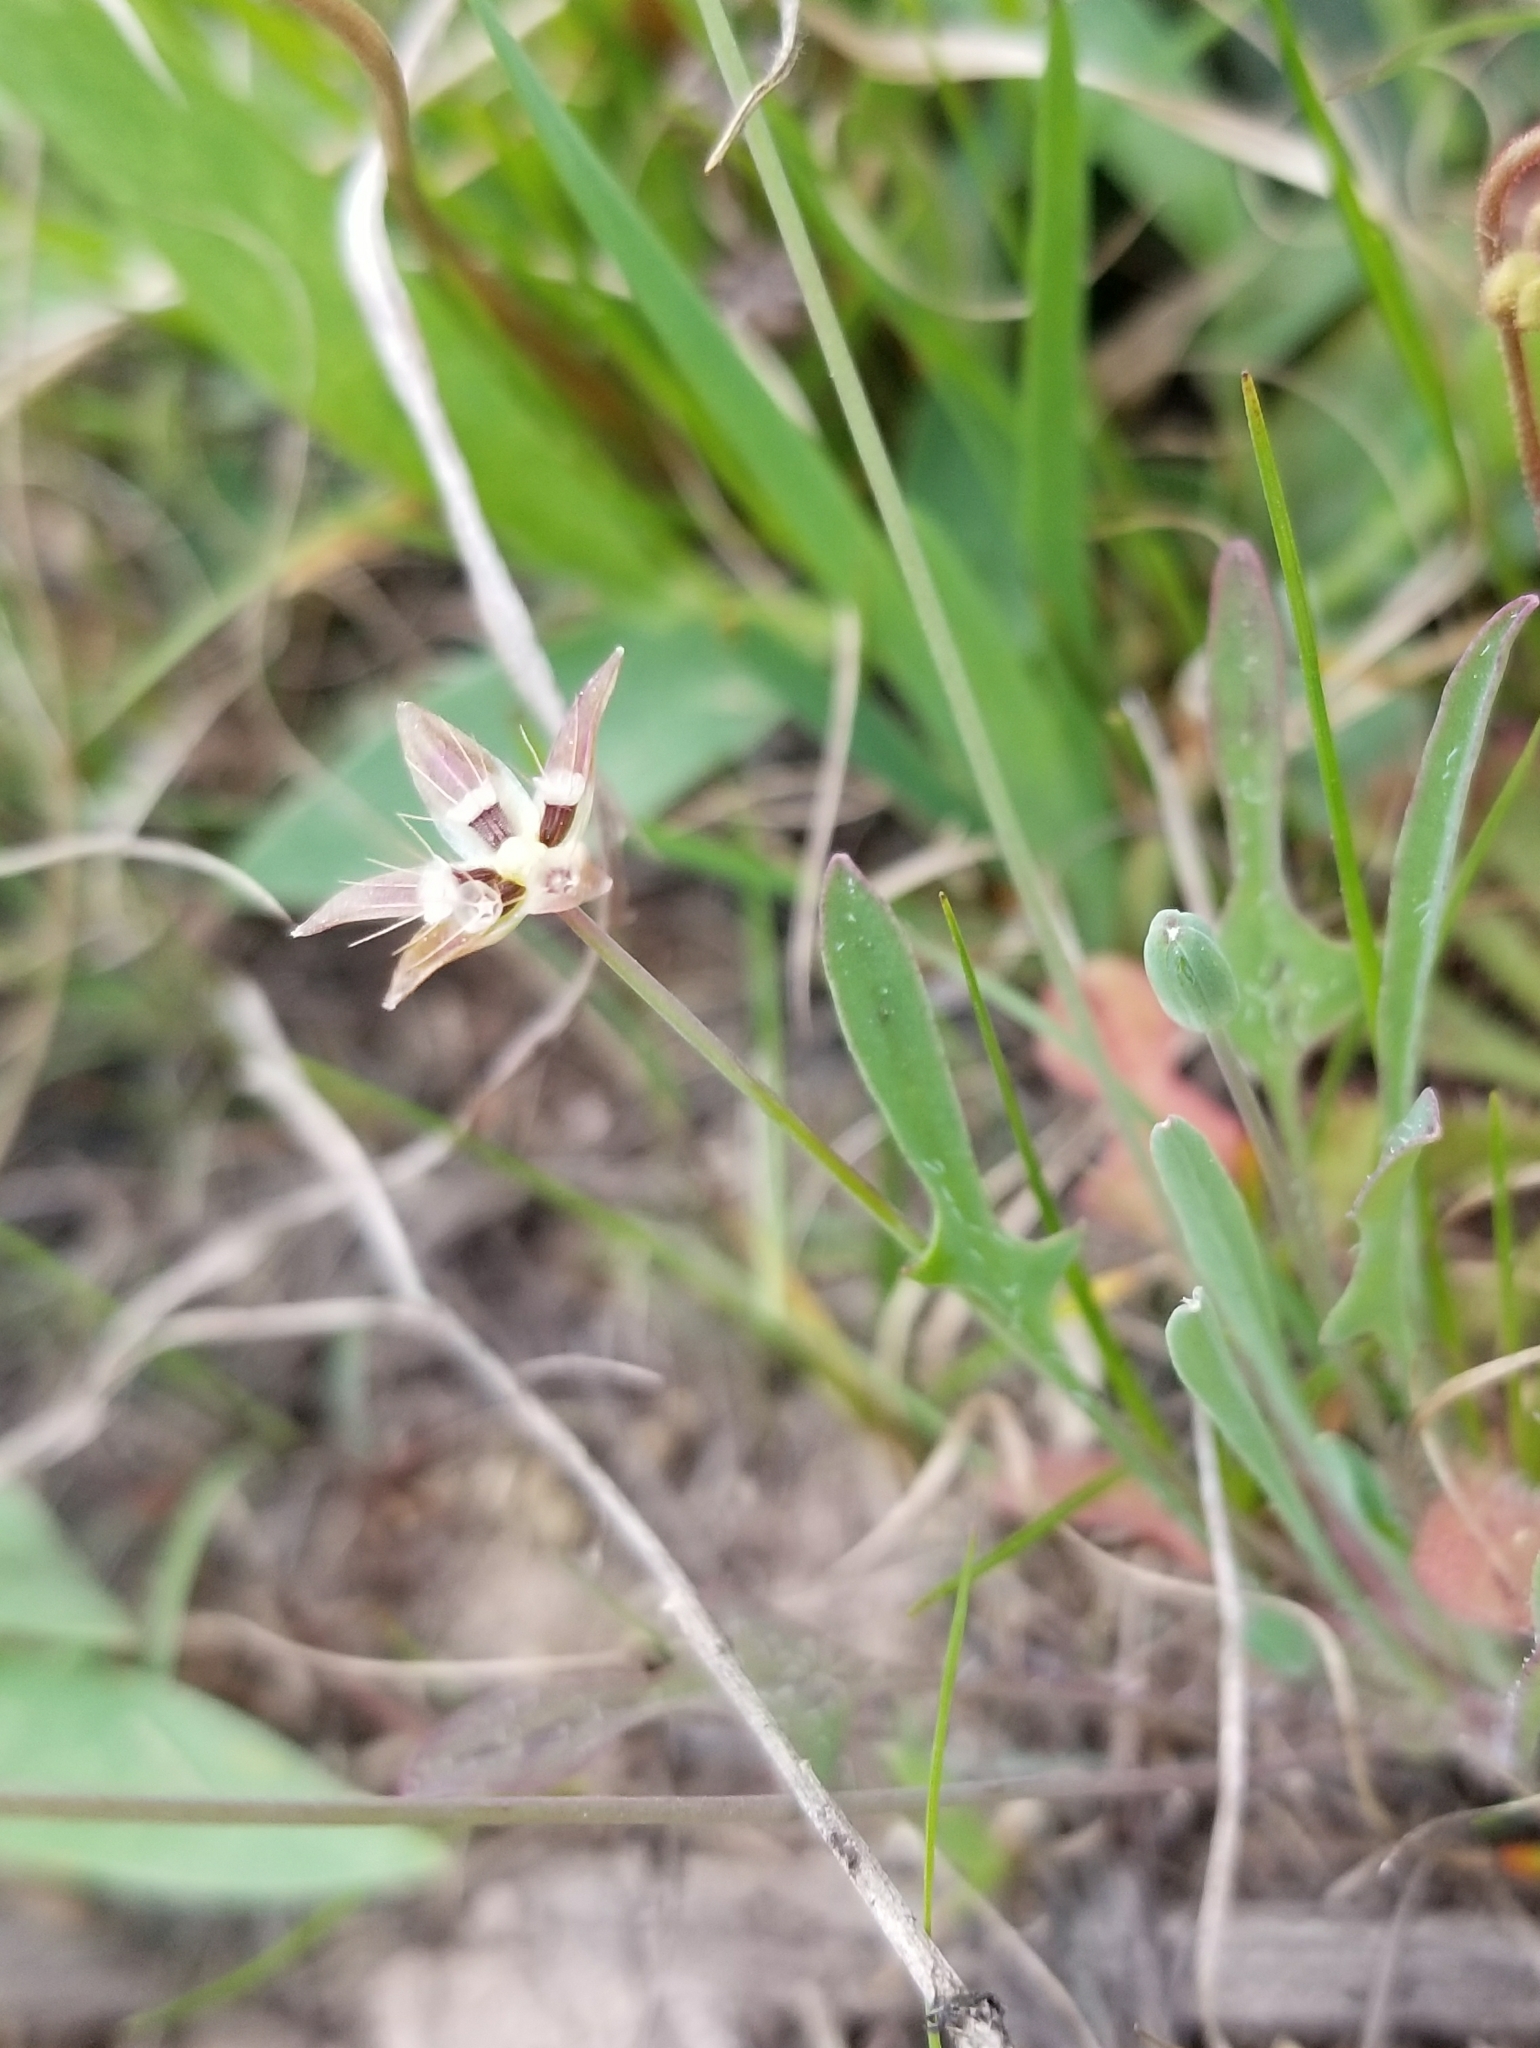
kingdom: Plantae
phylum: Tracheophyta
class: Magnoliopsida
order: Asterales
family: Asteraceae
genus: Krigia
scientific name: Krigia occidentalis
